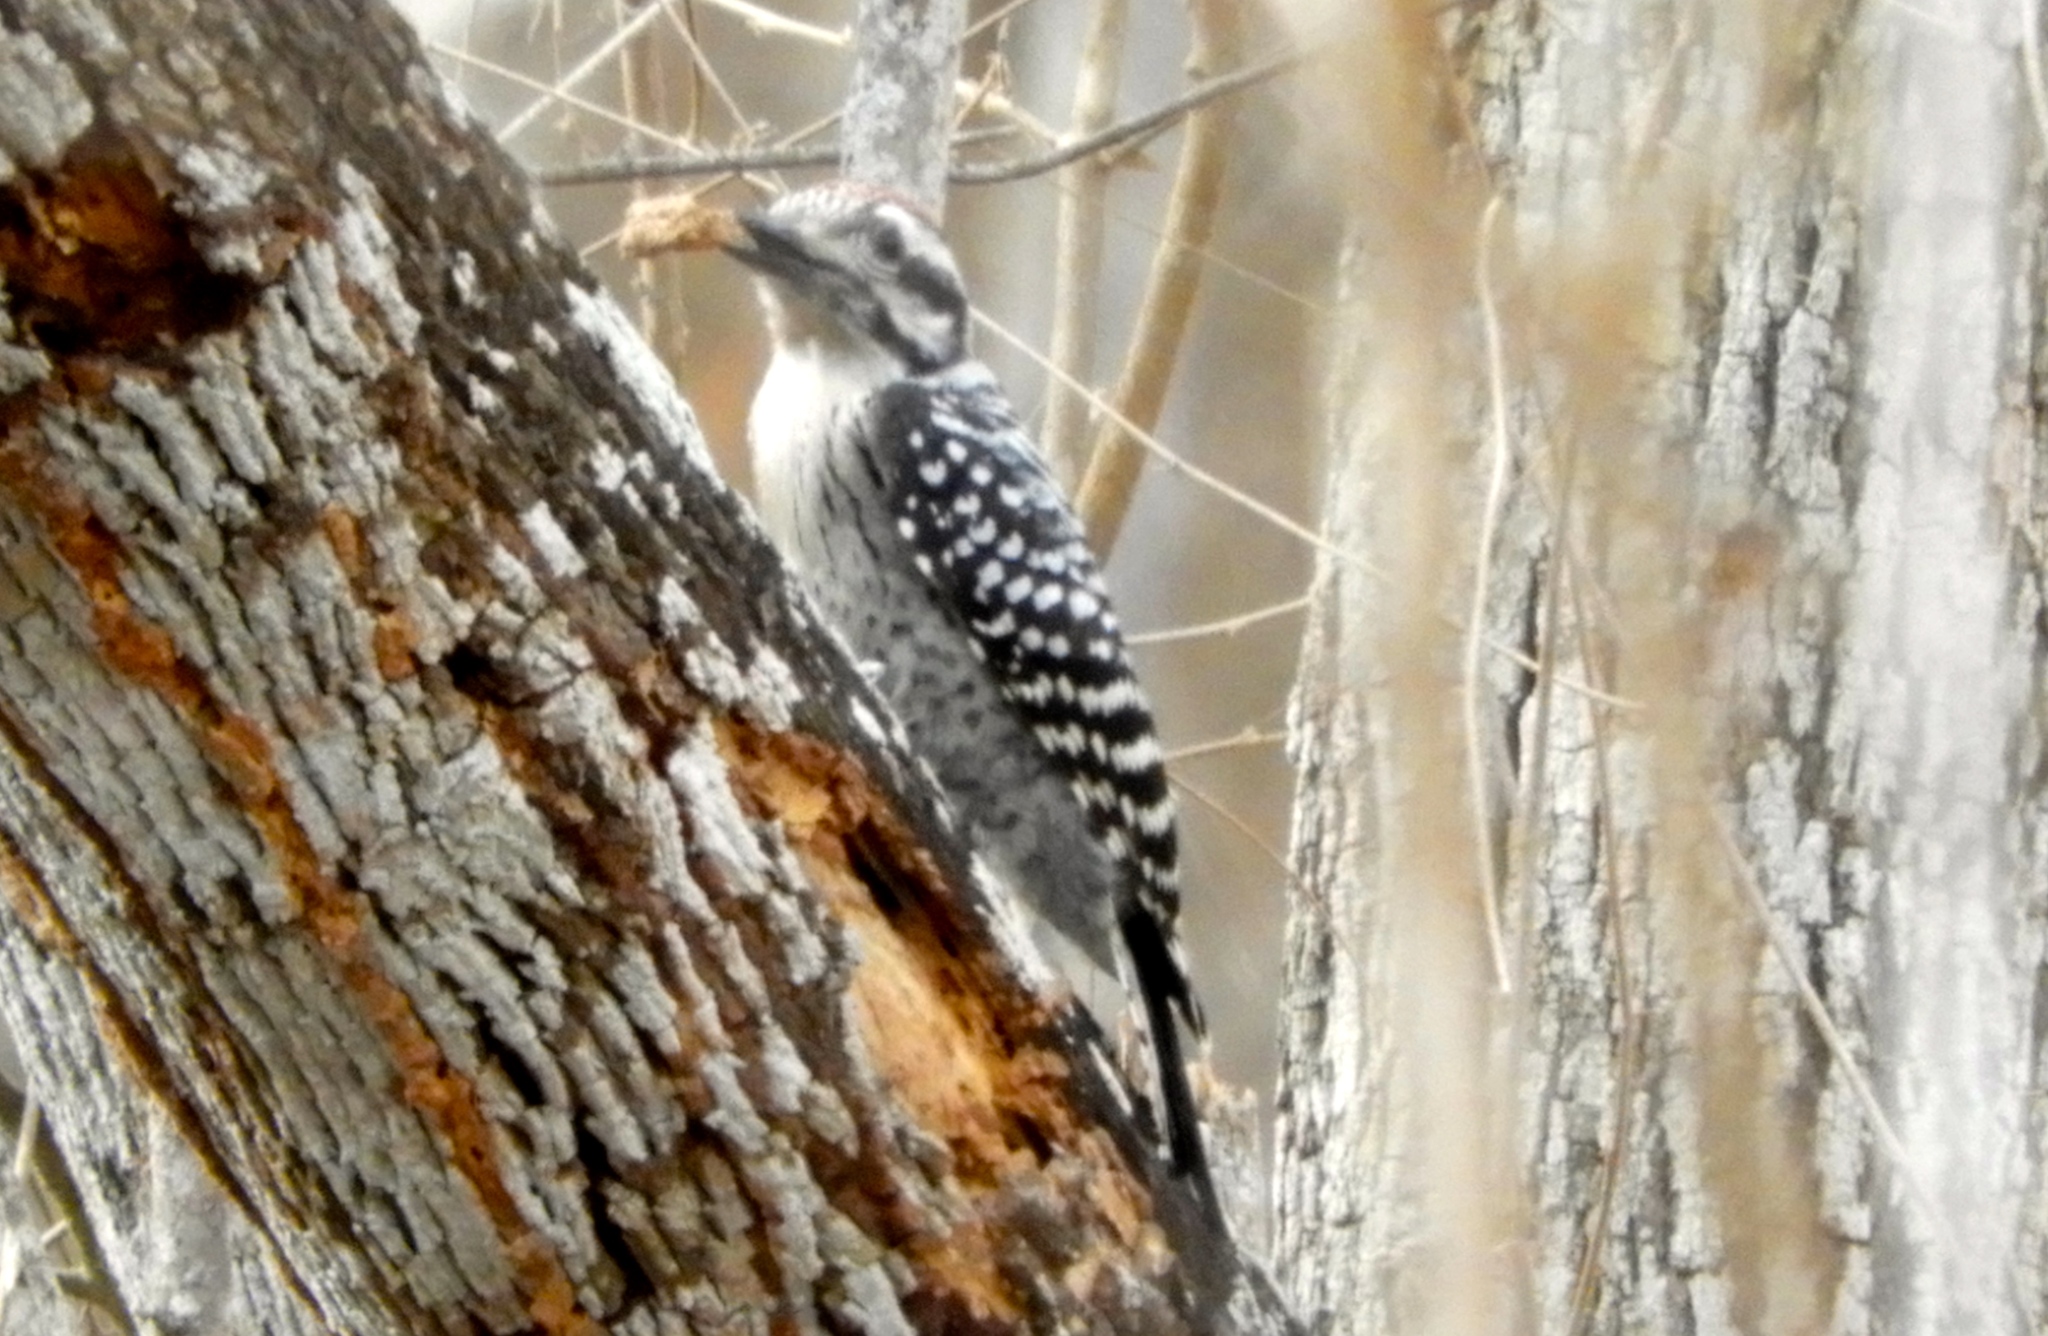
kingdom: Animalia
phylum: Chordata
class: Aves
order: Piciformes
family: Picidae
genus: Dryobates
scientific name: Dryobates scalaris
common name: Ladder-backed woodpecker
